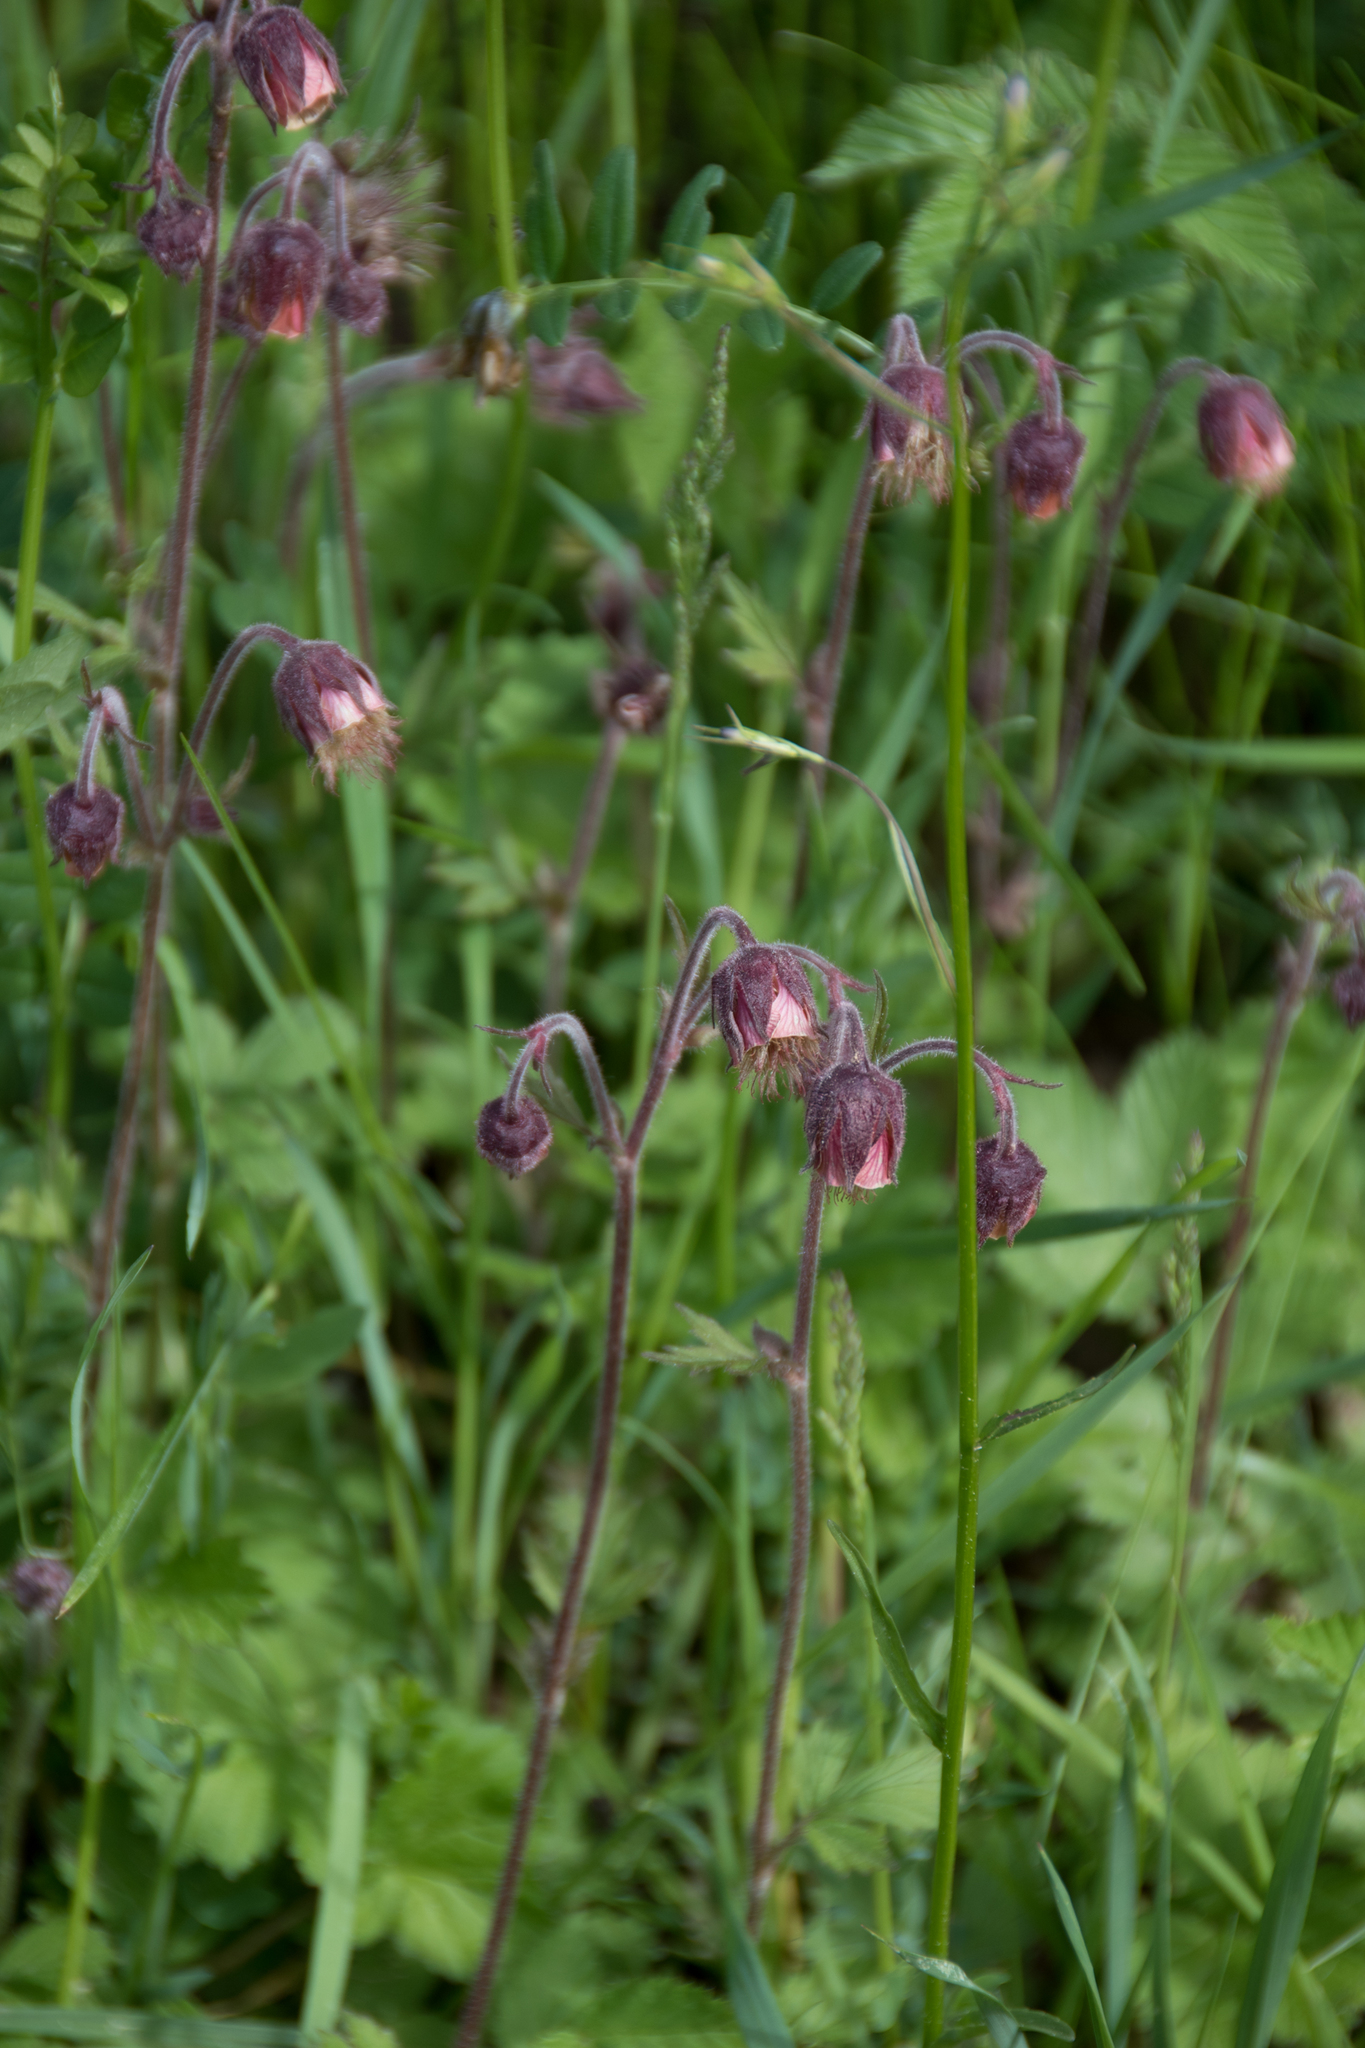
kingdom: Plantae
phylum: Tracheophyta
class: Magnoliopsida
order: Rosales
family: Rosaceae
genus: Geum
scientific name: Geum rivale
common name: Water avens
